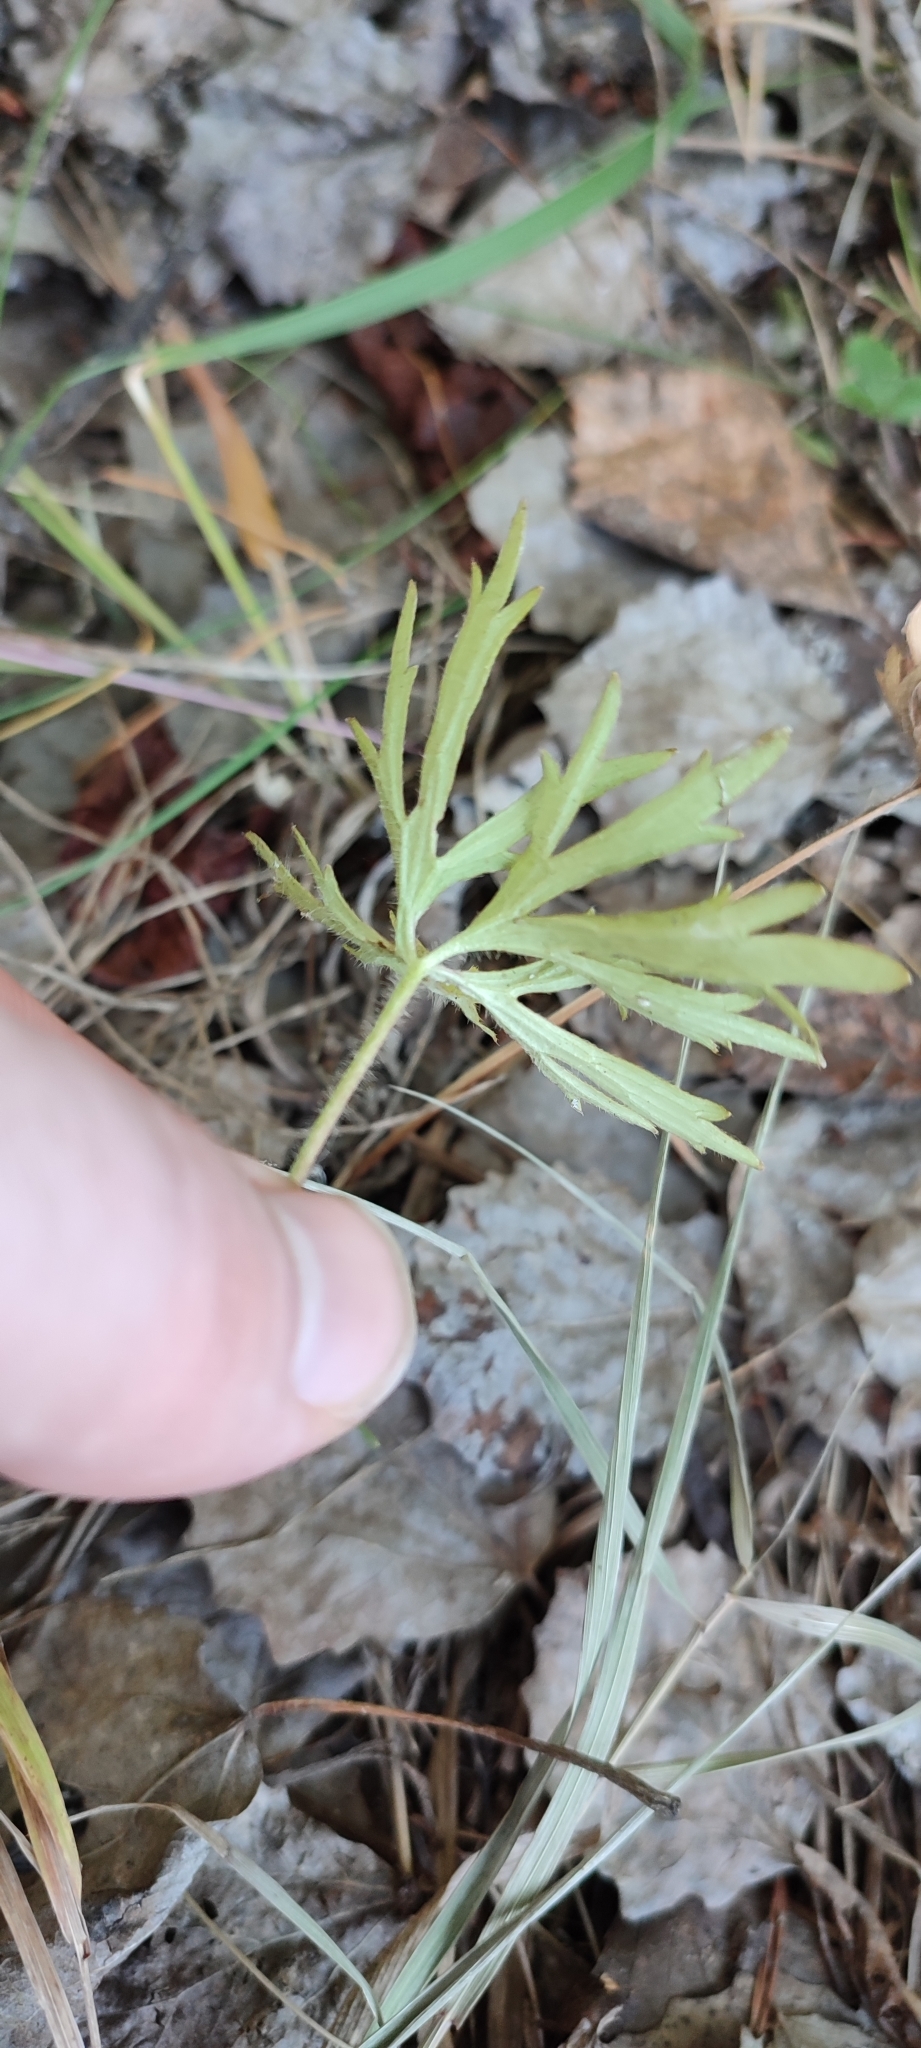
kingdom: Plantae
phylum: Tracheophyta
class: Magnoliopsida
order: Ranunculales
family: Ranunculaceae
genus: Ranunculus
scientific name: Ranunculus polyanthemos
